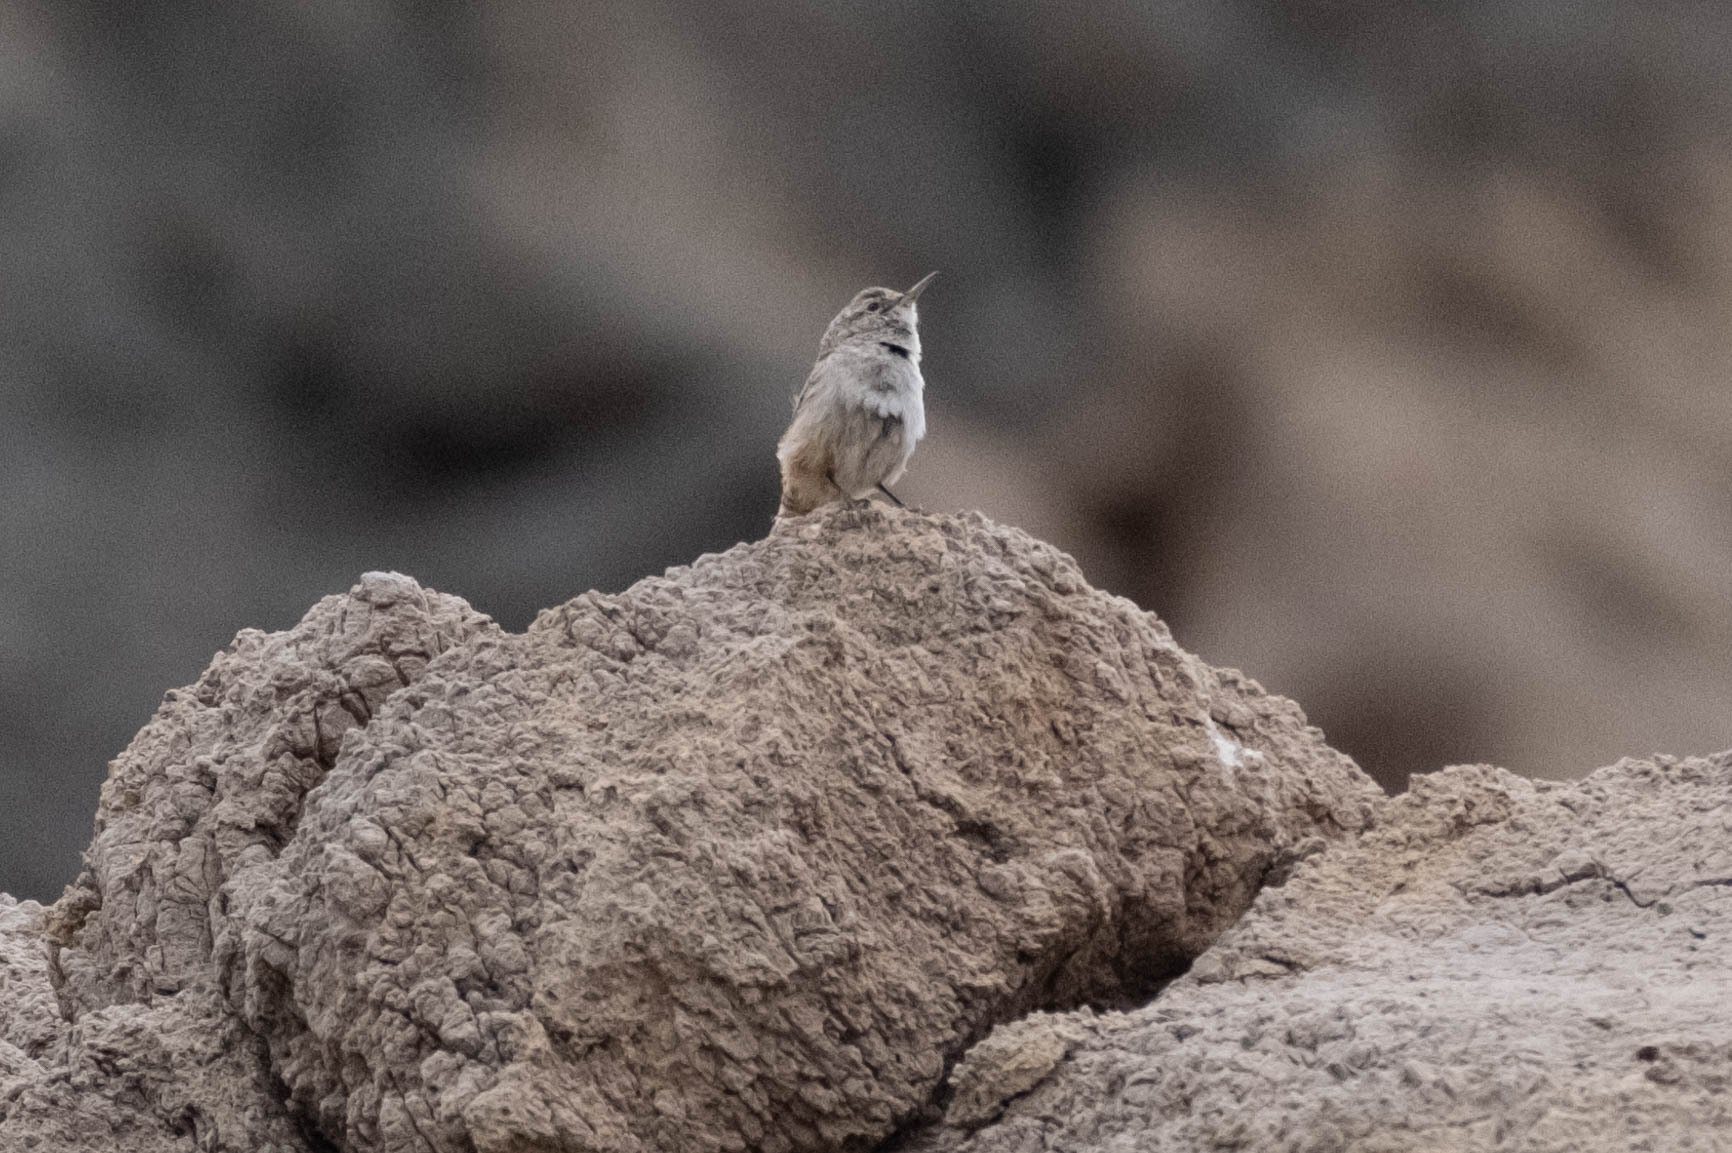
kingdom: Animalia
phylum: Chordata
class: Aves
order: Passeriformes
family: Troglodytidae
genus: Salpinctes
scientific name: Salpinctes obsoletus
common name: Rock wren
